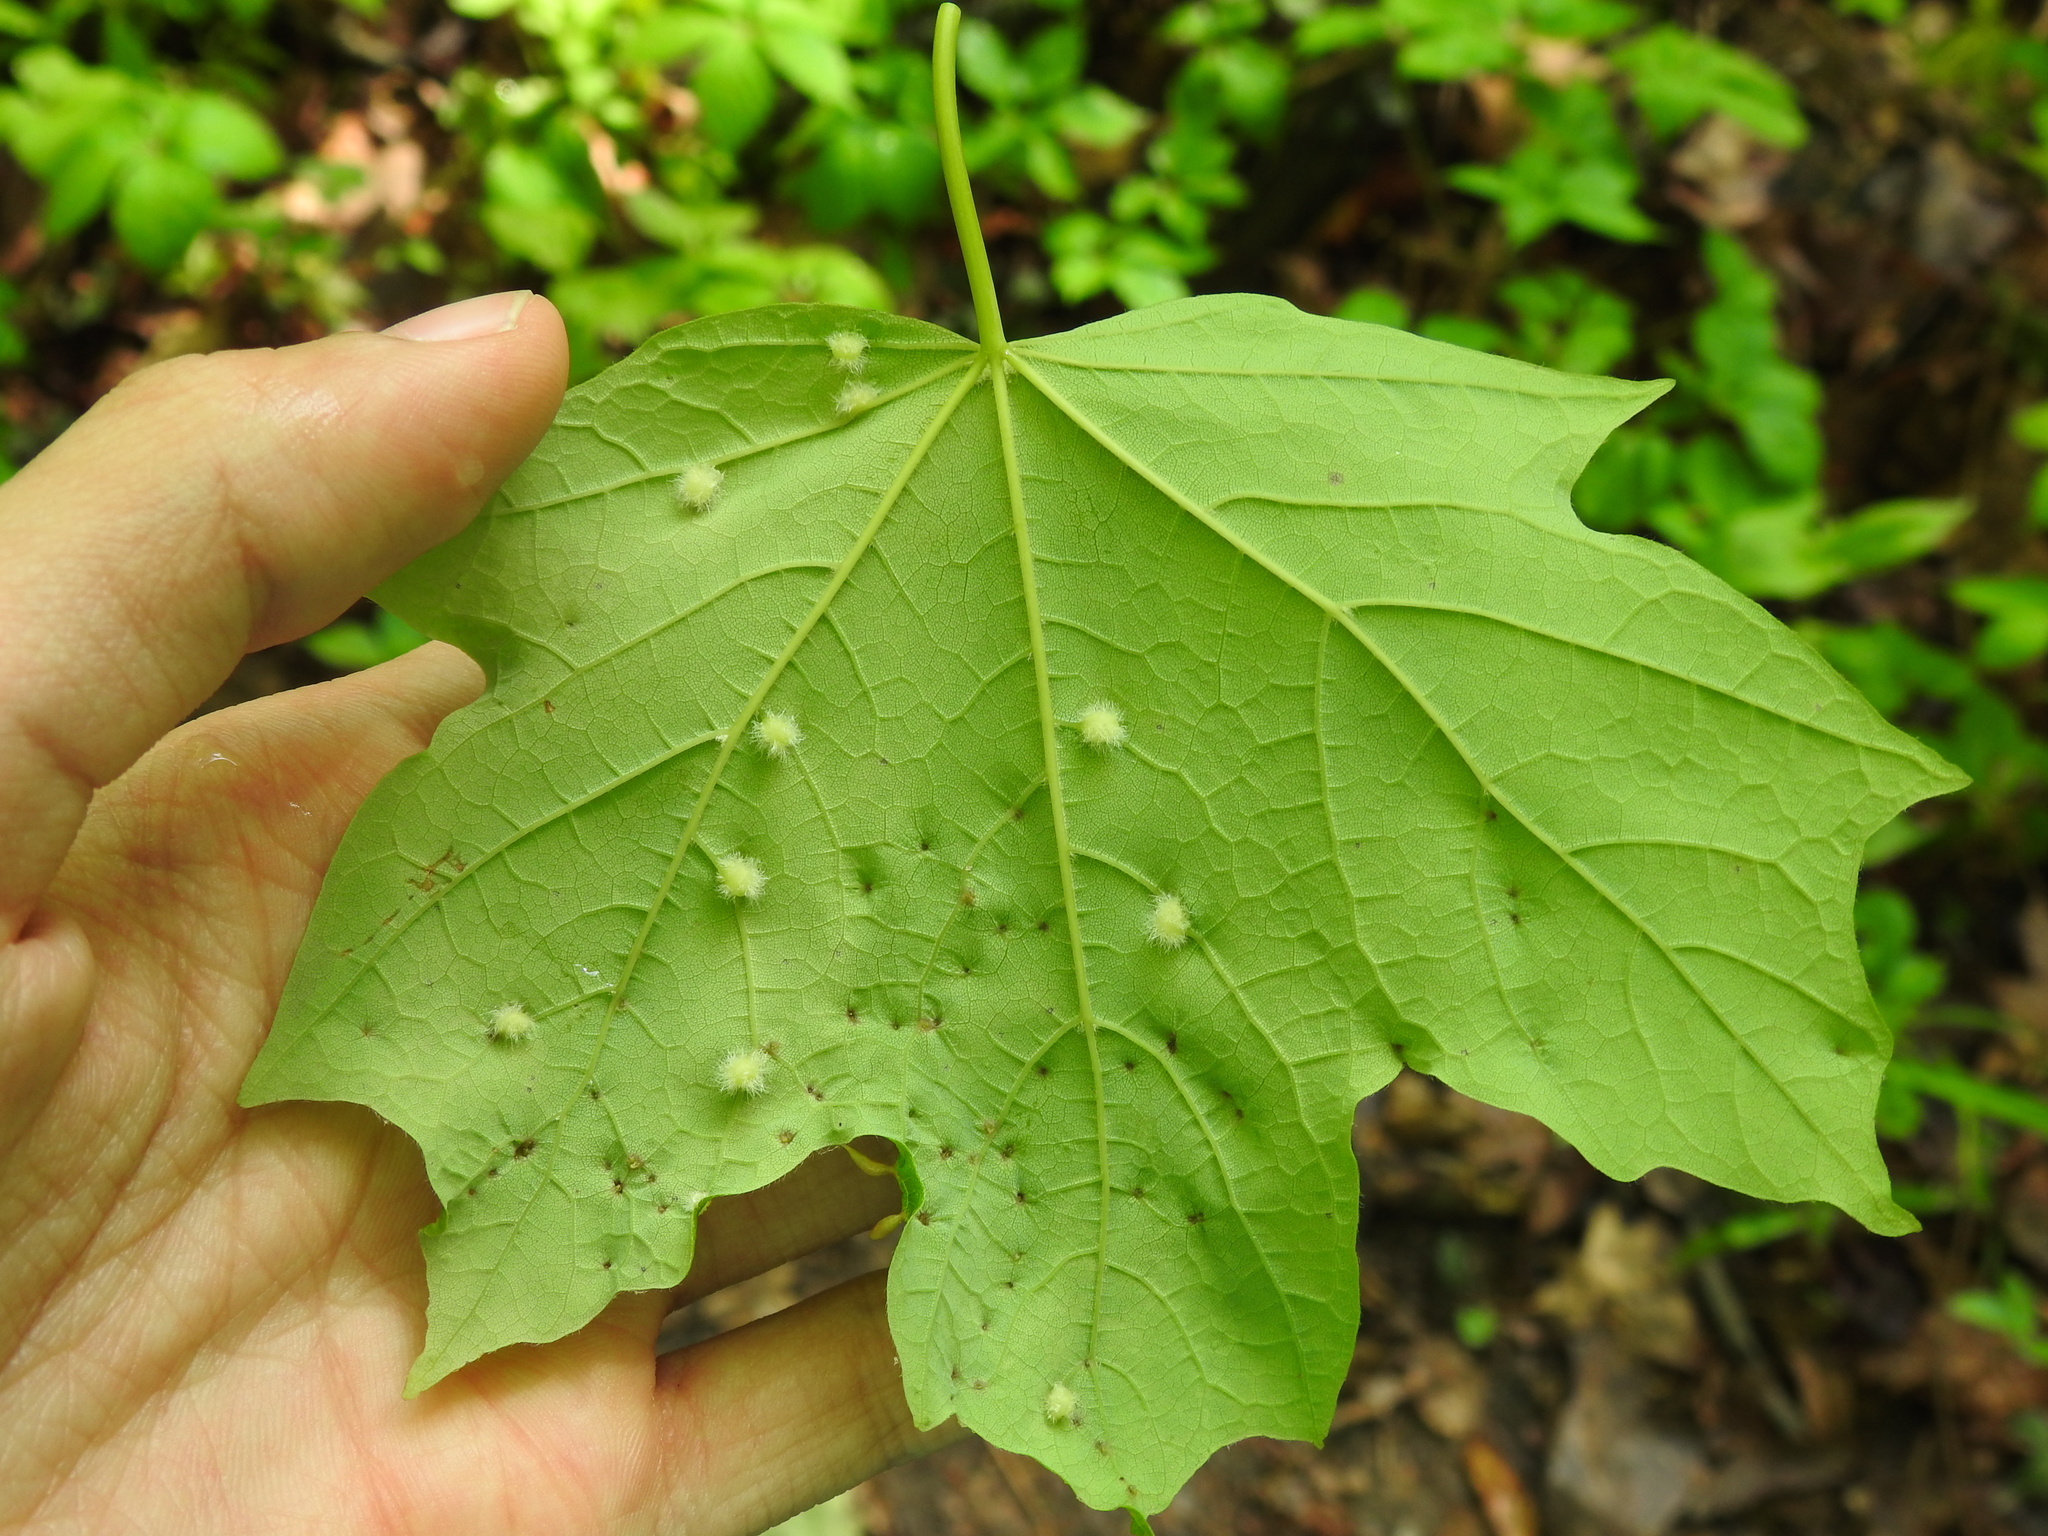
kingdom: Animalia
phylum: Arthropoda
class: Insecta
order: Diptera
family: Cecidomyiidae
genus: Dasineura
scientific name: Dasineura communis
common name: Gouty vein midge
